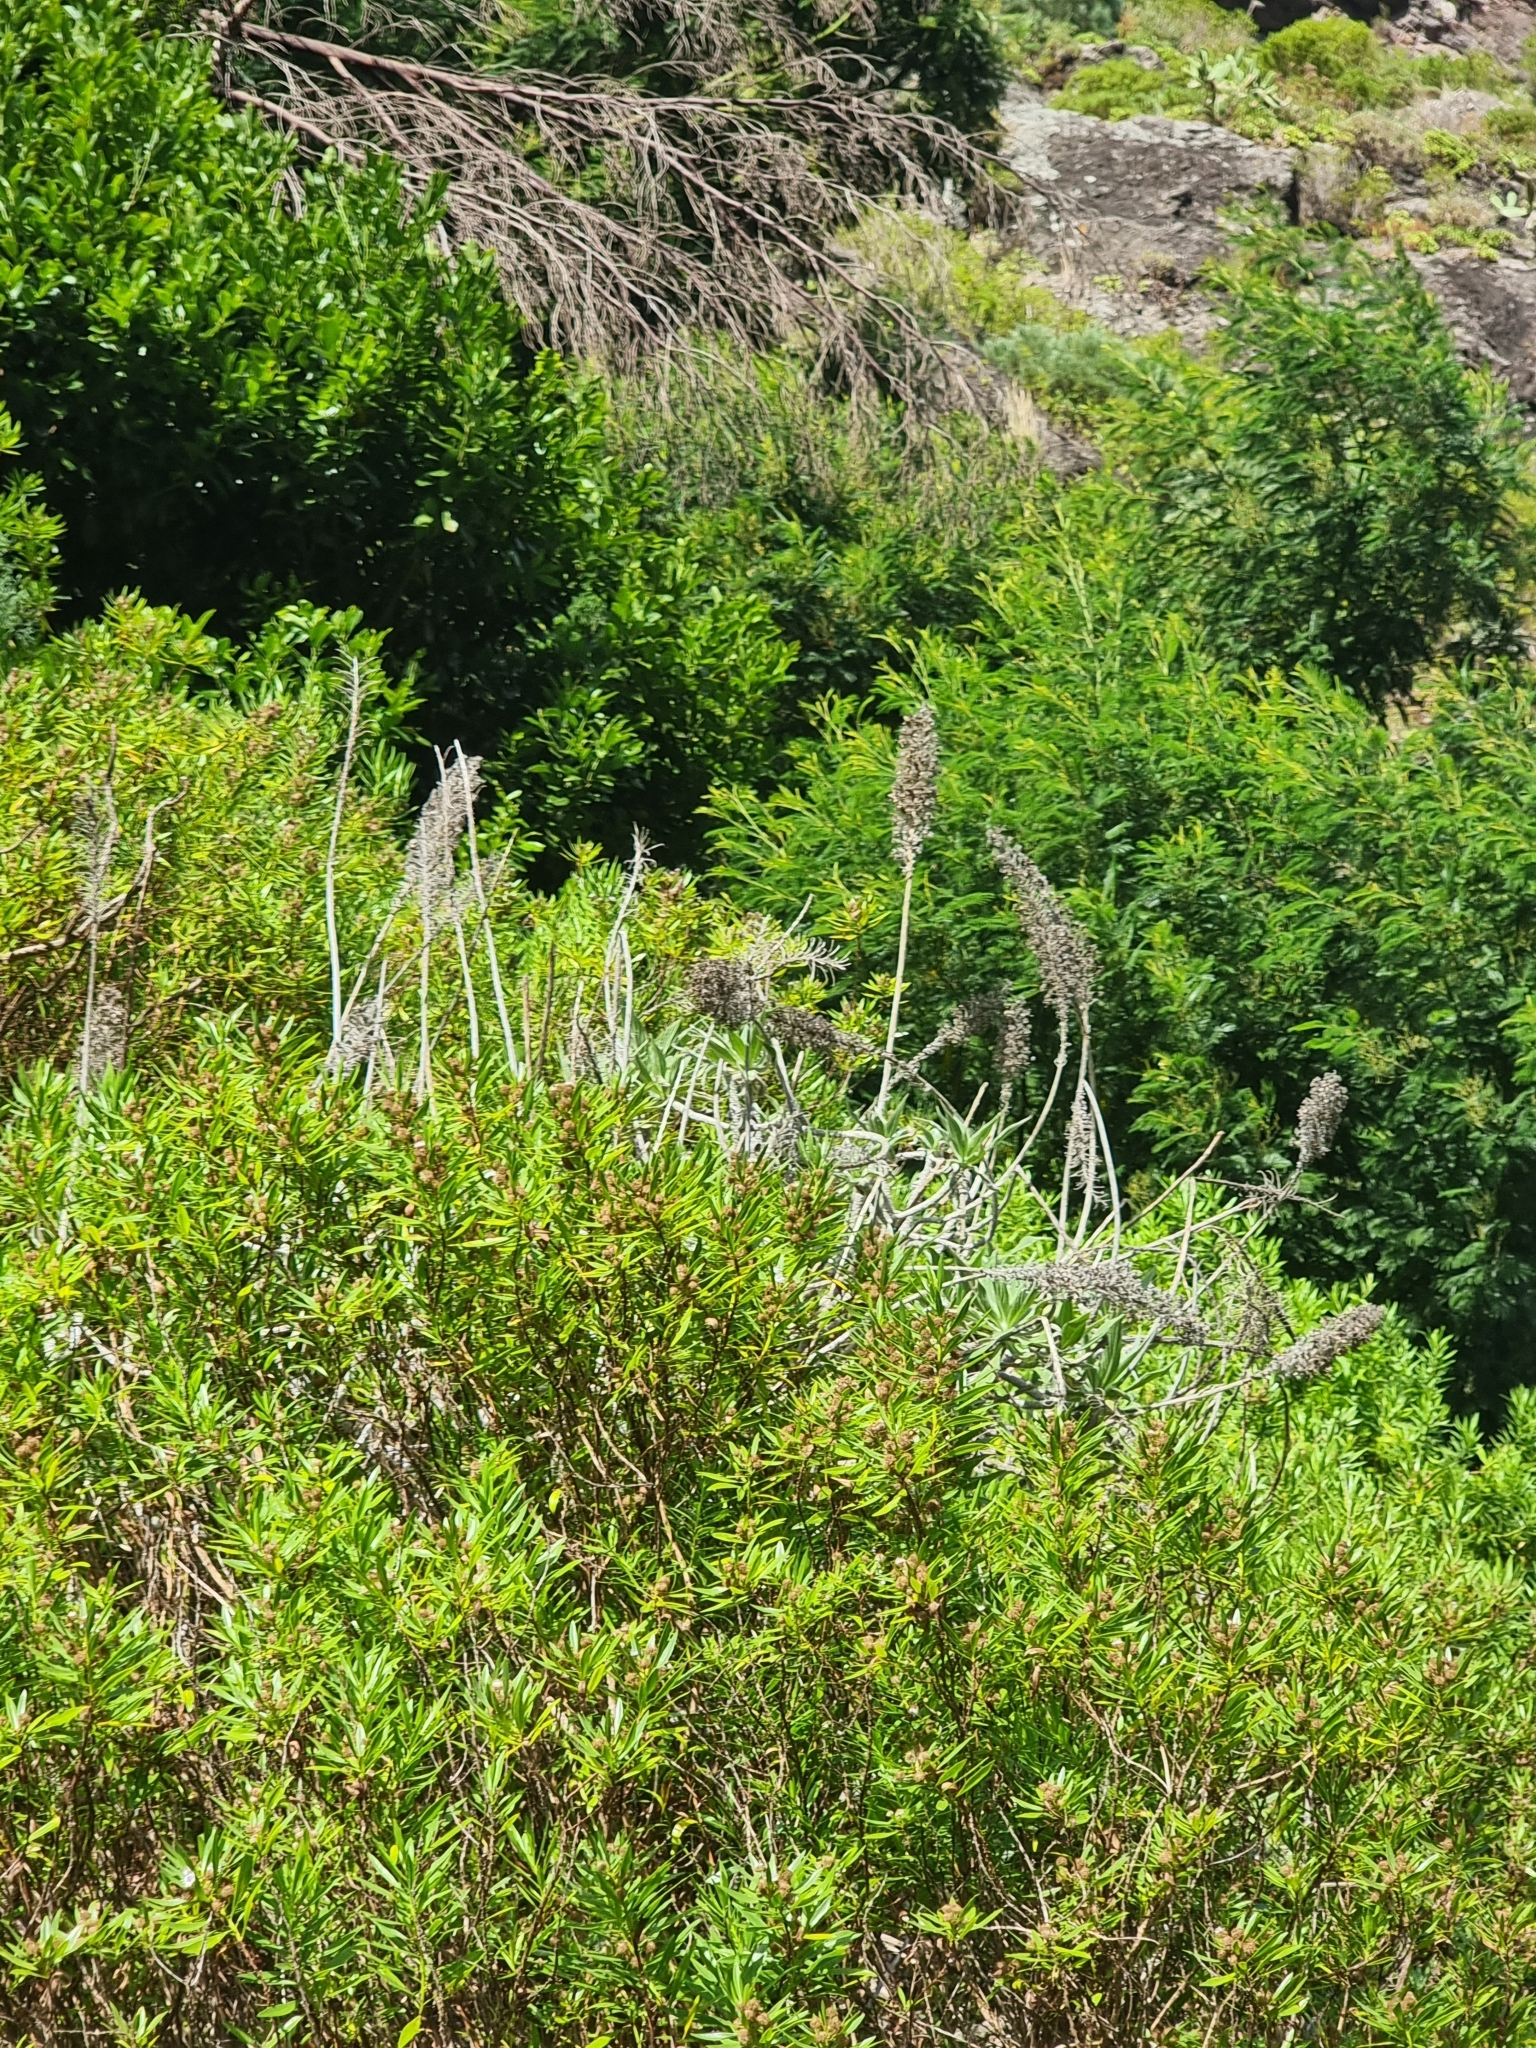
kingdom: Plantae
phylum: Tracheophyta
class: Magnoliopsida
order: Boraginales
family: Boraginaceae
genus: Echium
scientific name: Echium candicans
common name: Pride of madeira
